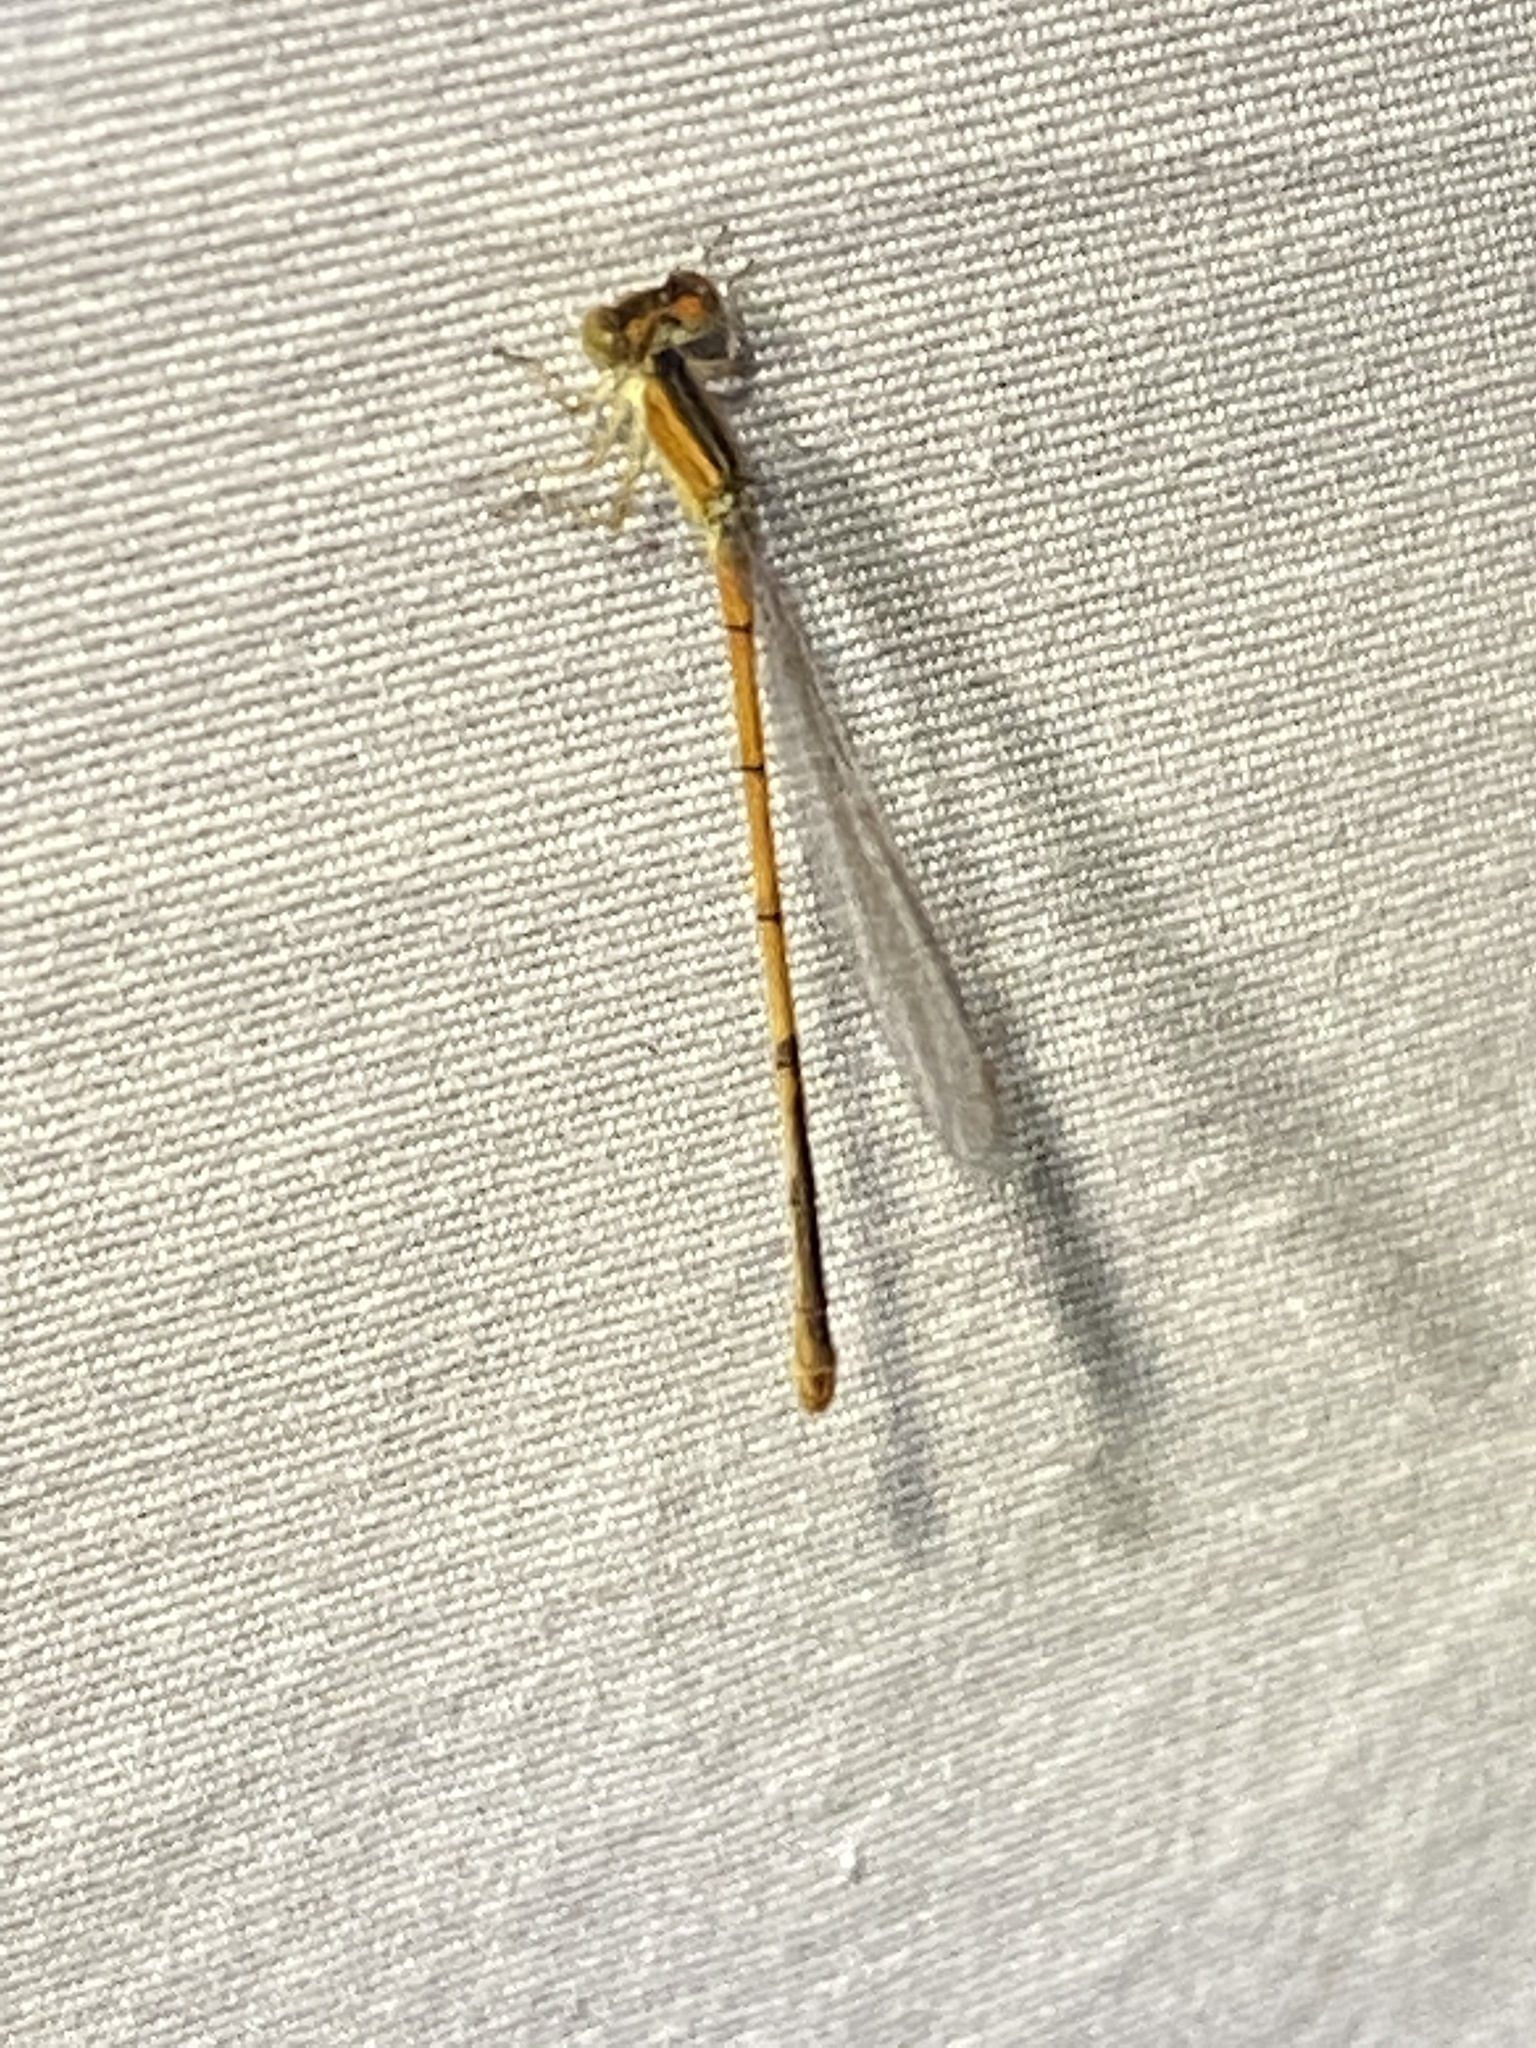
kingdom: Animalia
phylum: Arthropoda
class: Insecta
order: Odonata
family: Coenagrionidae
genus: Ischnura
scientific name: Ischnura hastata
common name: Citrine forktail
